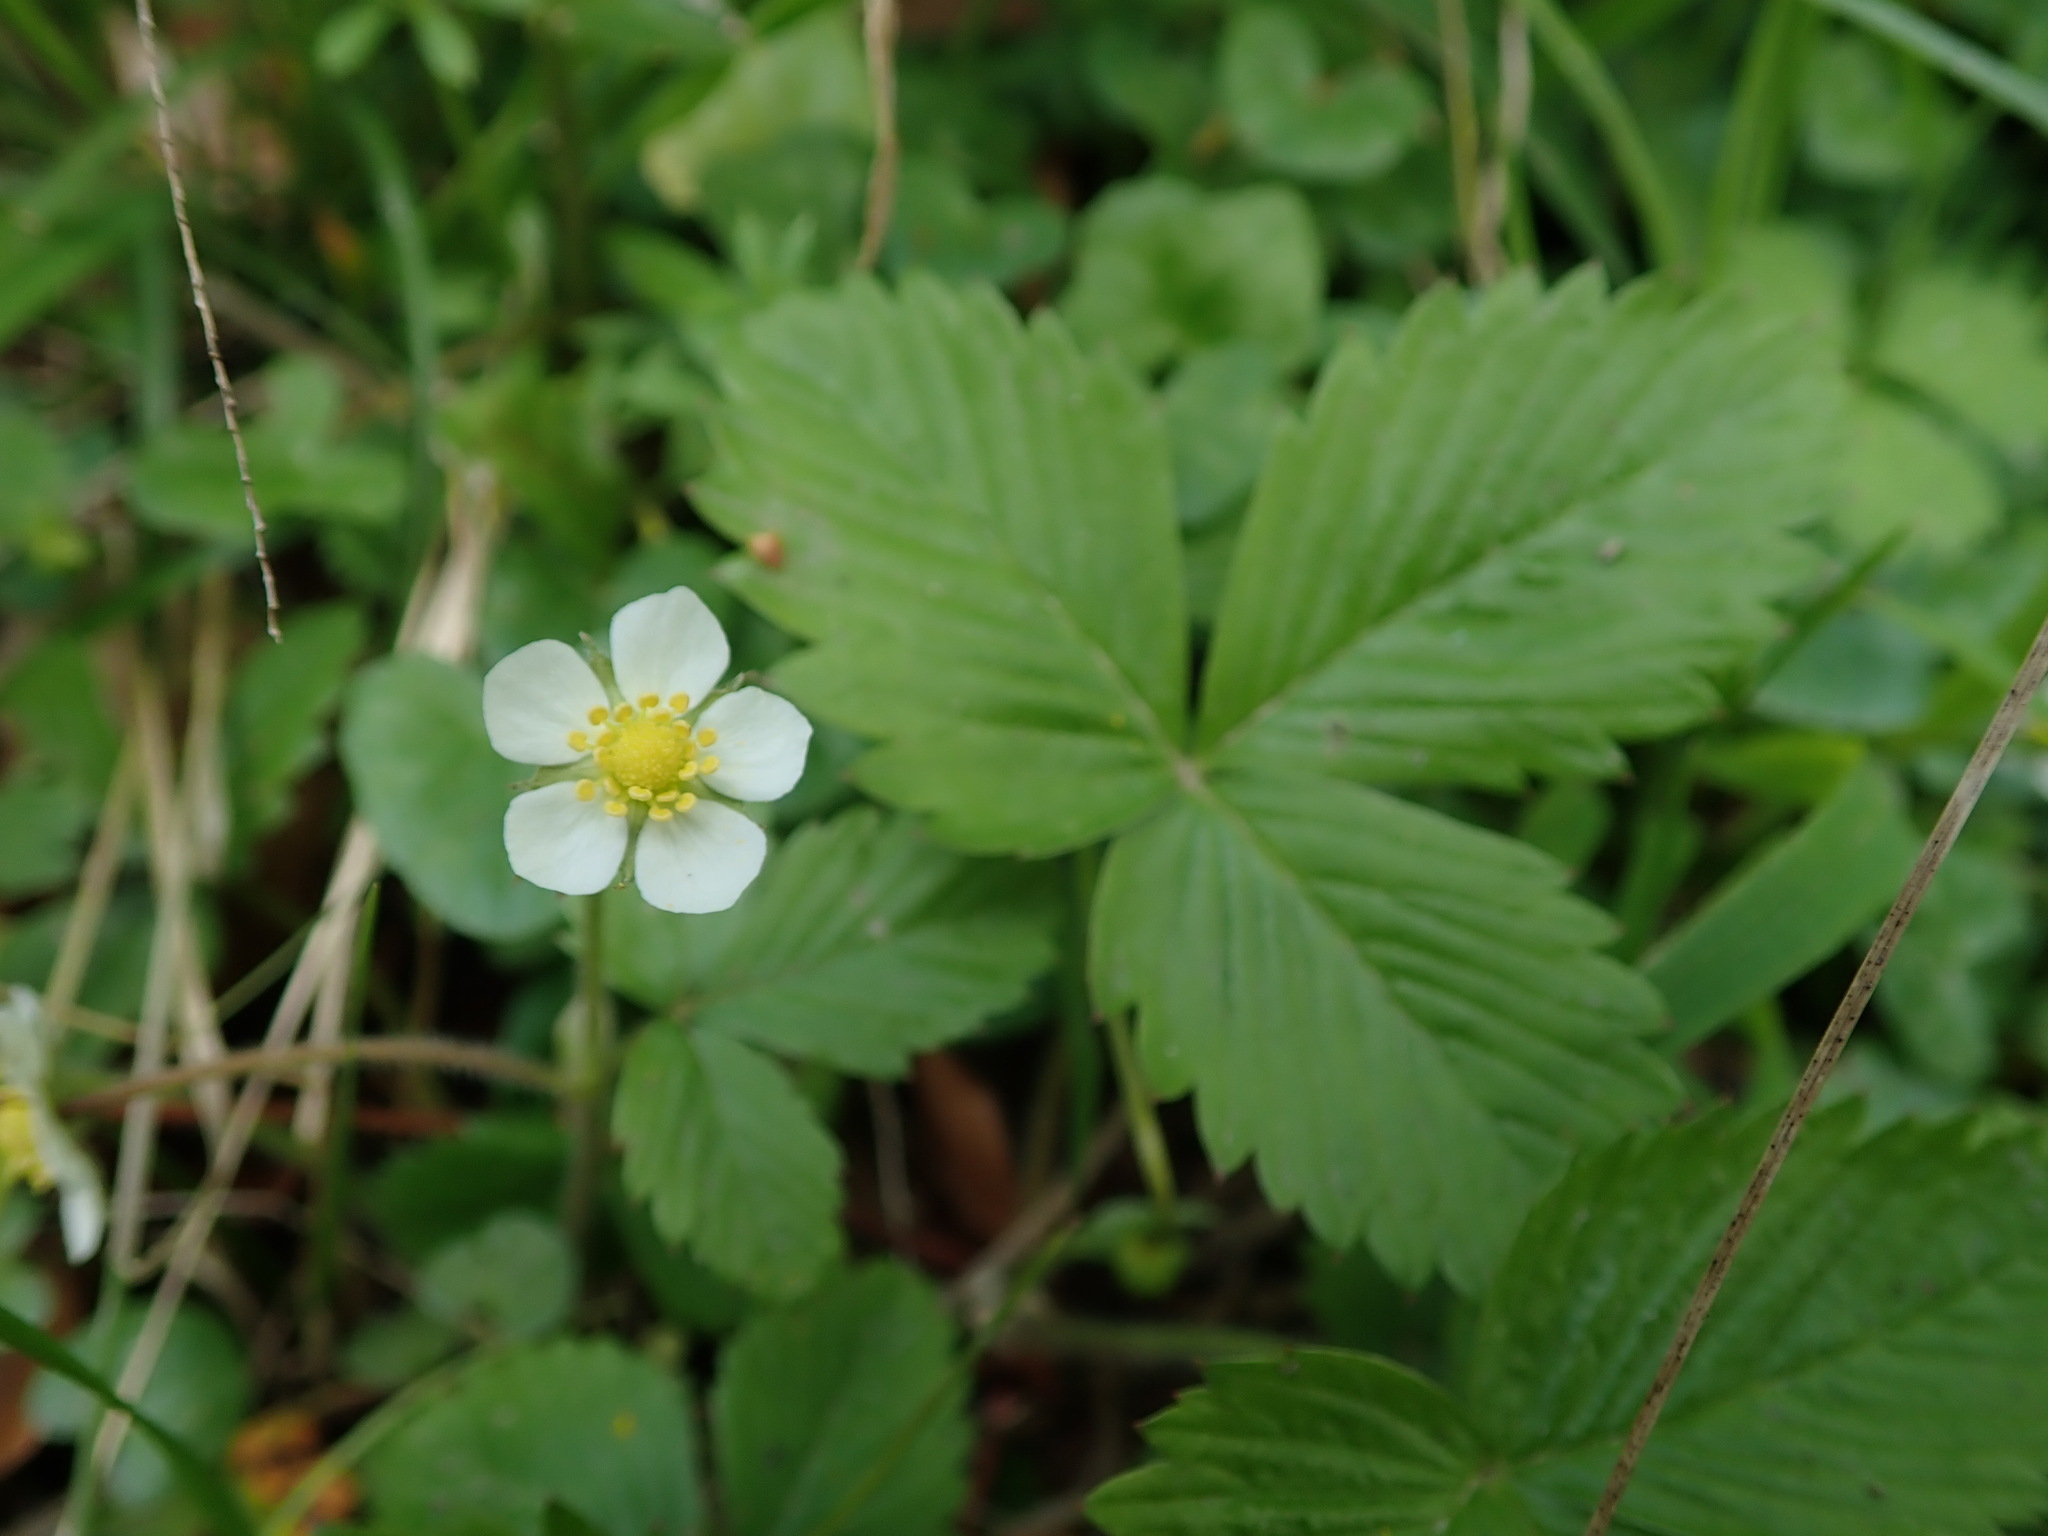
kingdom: Plantae
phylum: Tracheophyta
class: Magnoliopsida
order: Rosales
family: Rosaceae
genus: Fragaria
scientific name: Fragaria vesca
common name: Wild strawberry
